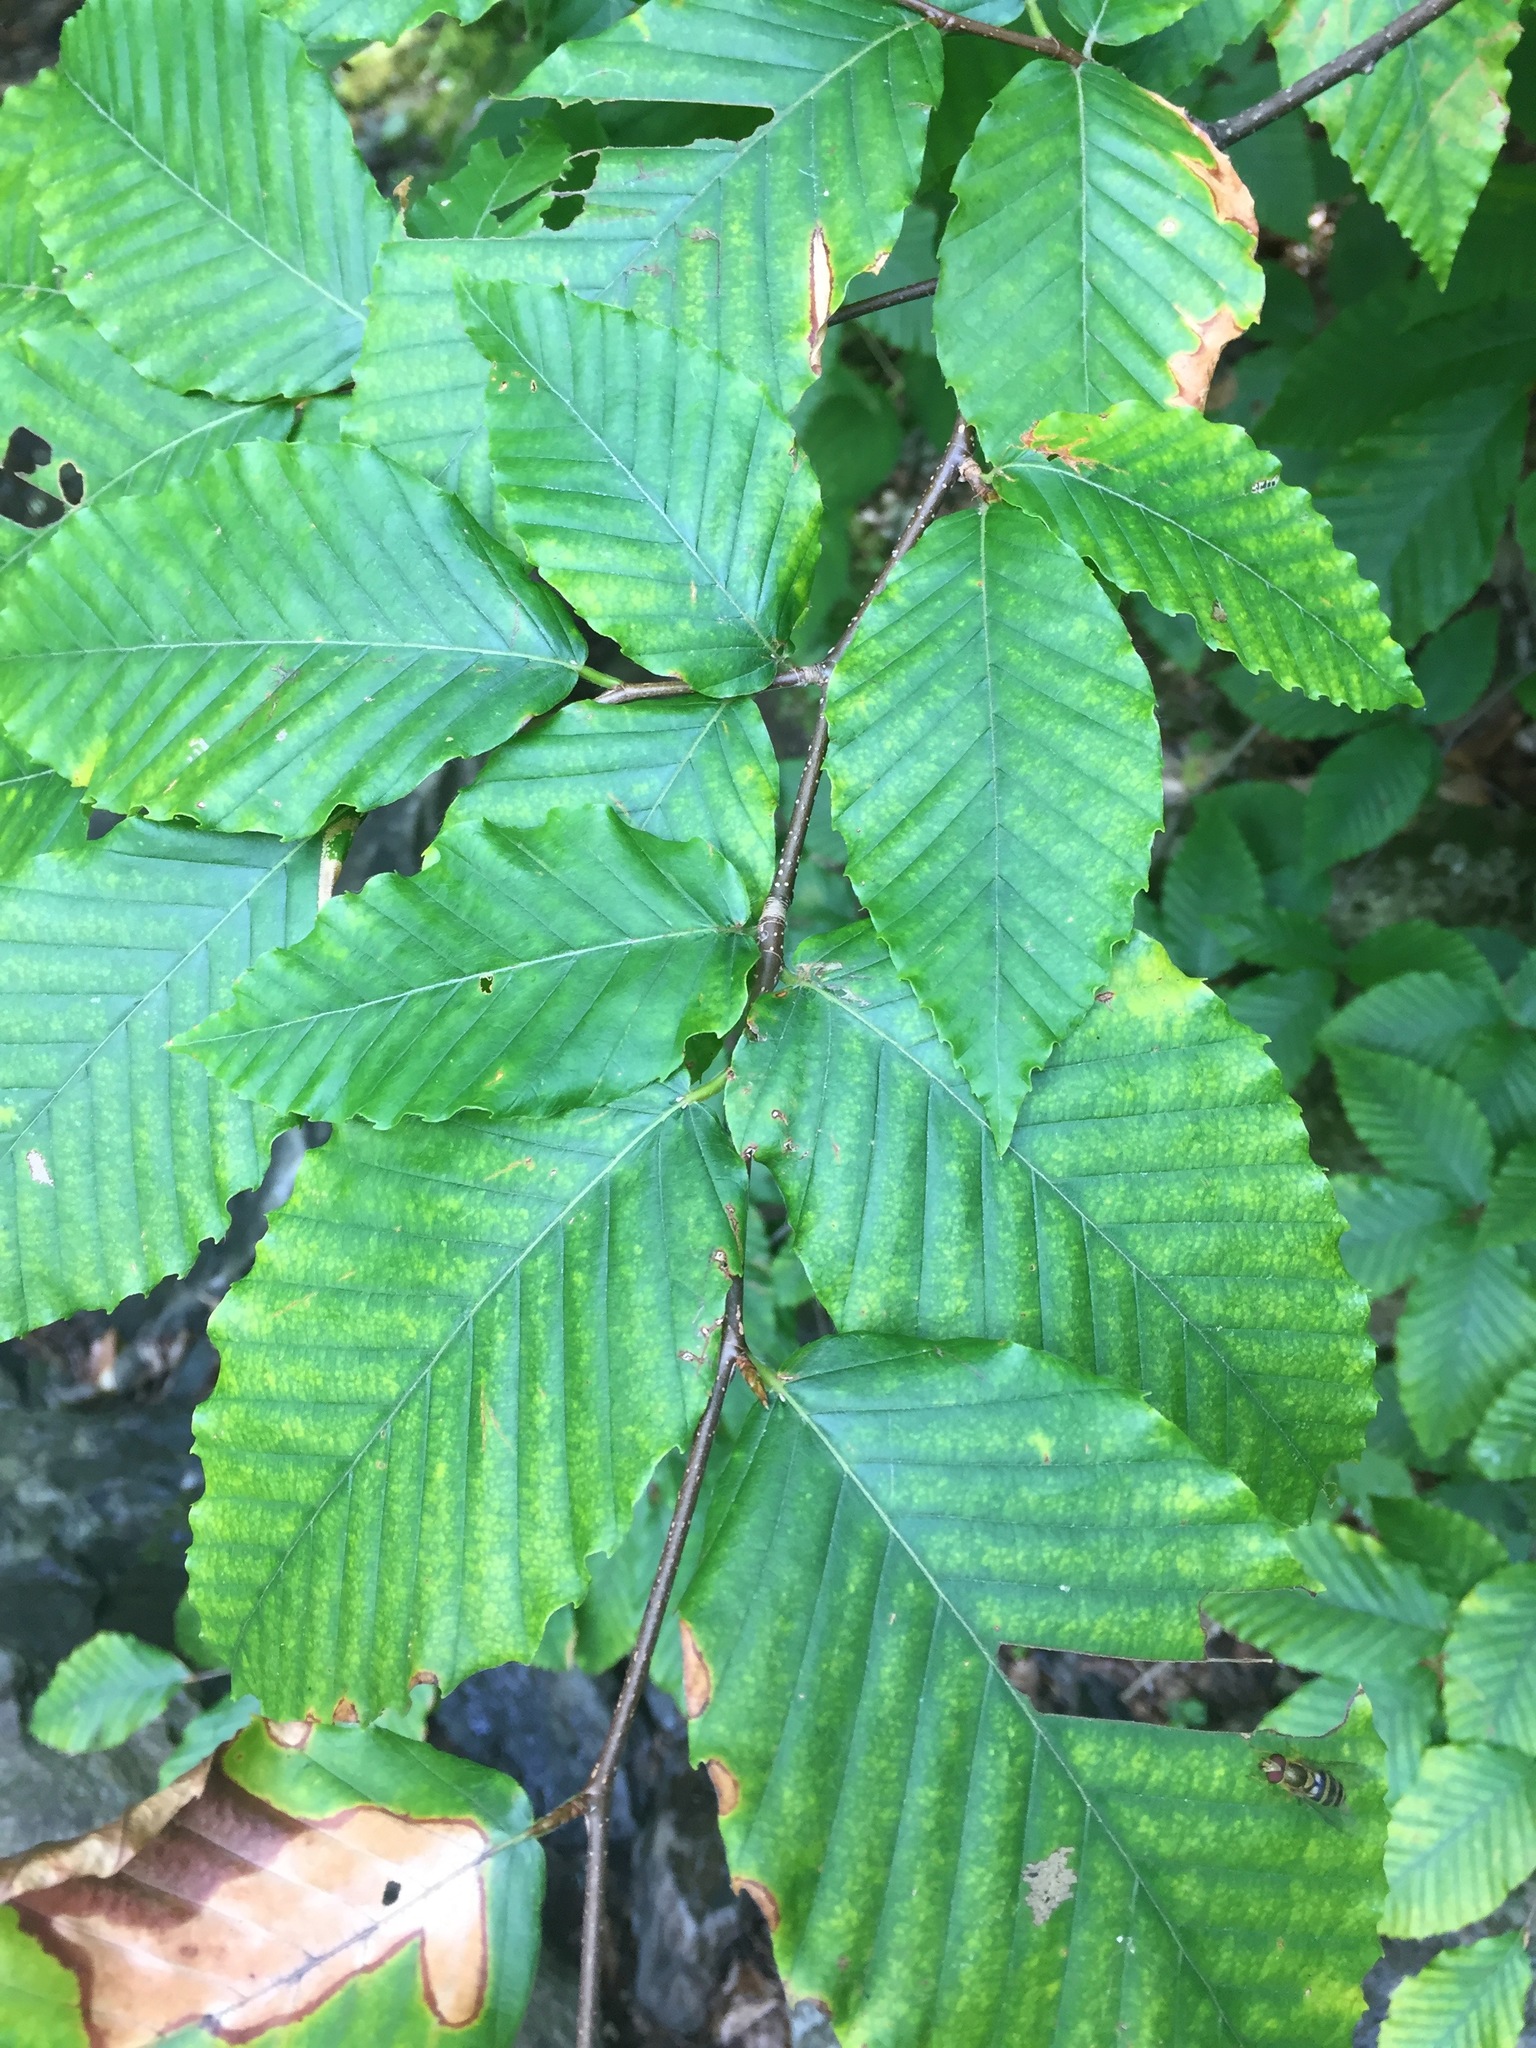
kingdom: Plantae
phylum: Tracheophyta
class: Magnoliopsida
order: Fagales
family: Fagaceae
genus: Fagus
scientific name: Fagus grandifolia
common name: American beech
